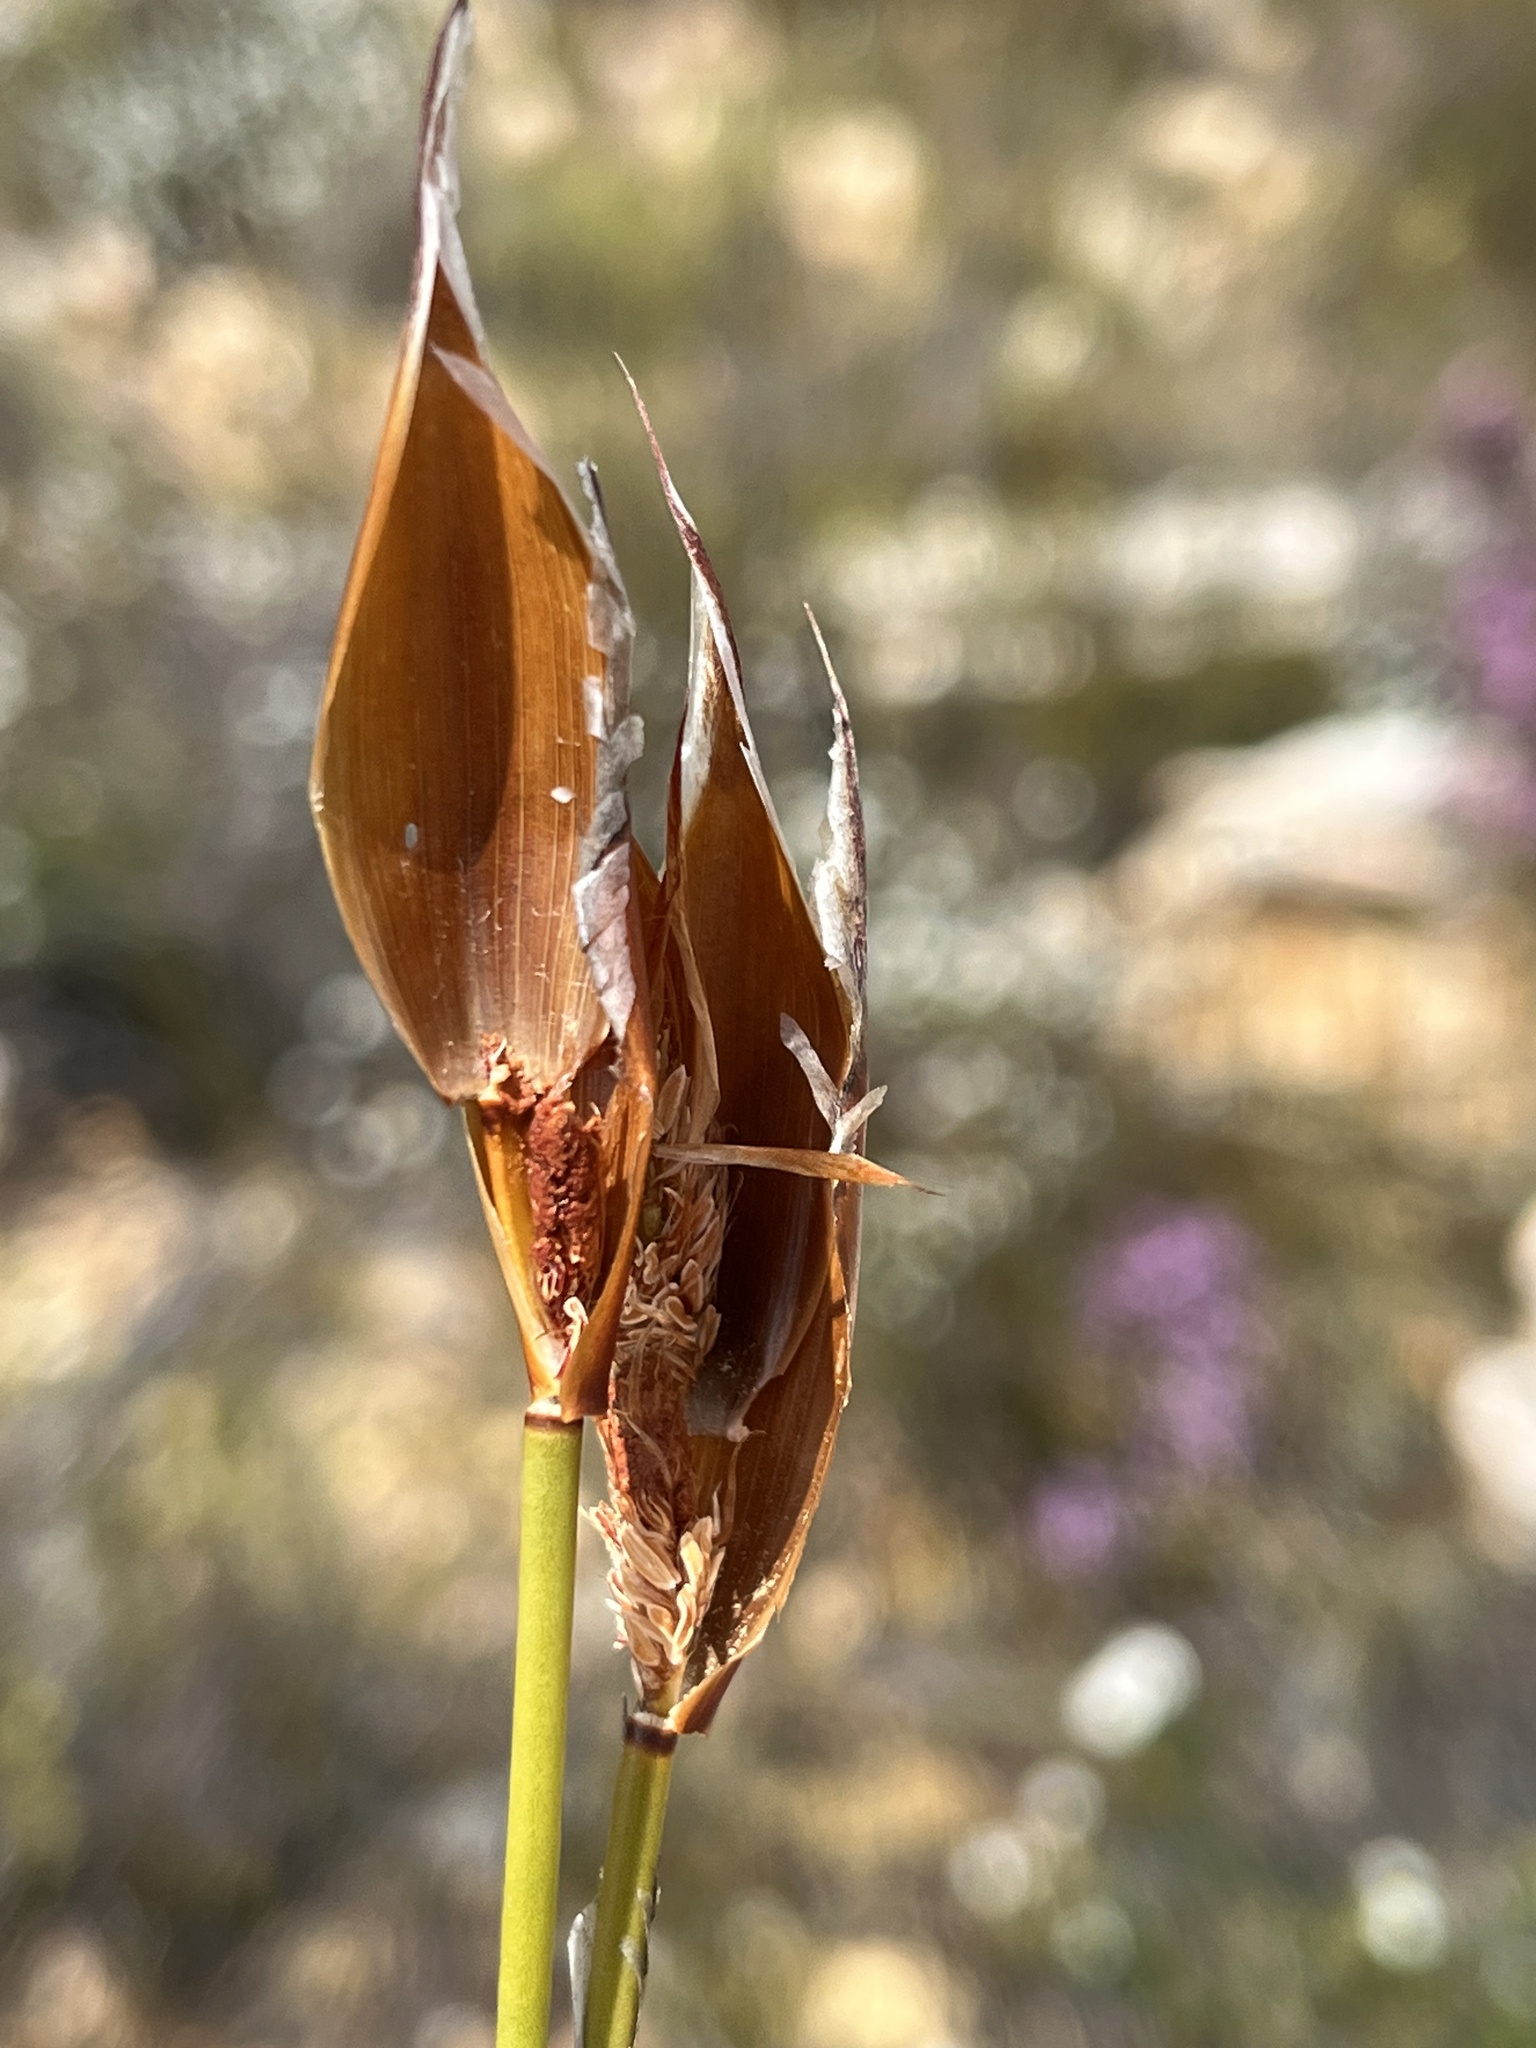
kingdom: Plantae
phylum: Tracheophyta
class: Liliopsida
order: Poales
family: Restionaceae
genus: Willdenowia
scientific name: Willdenowia glomerata
